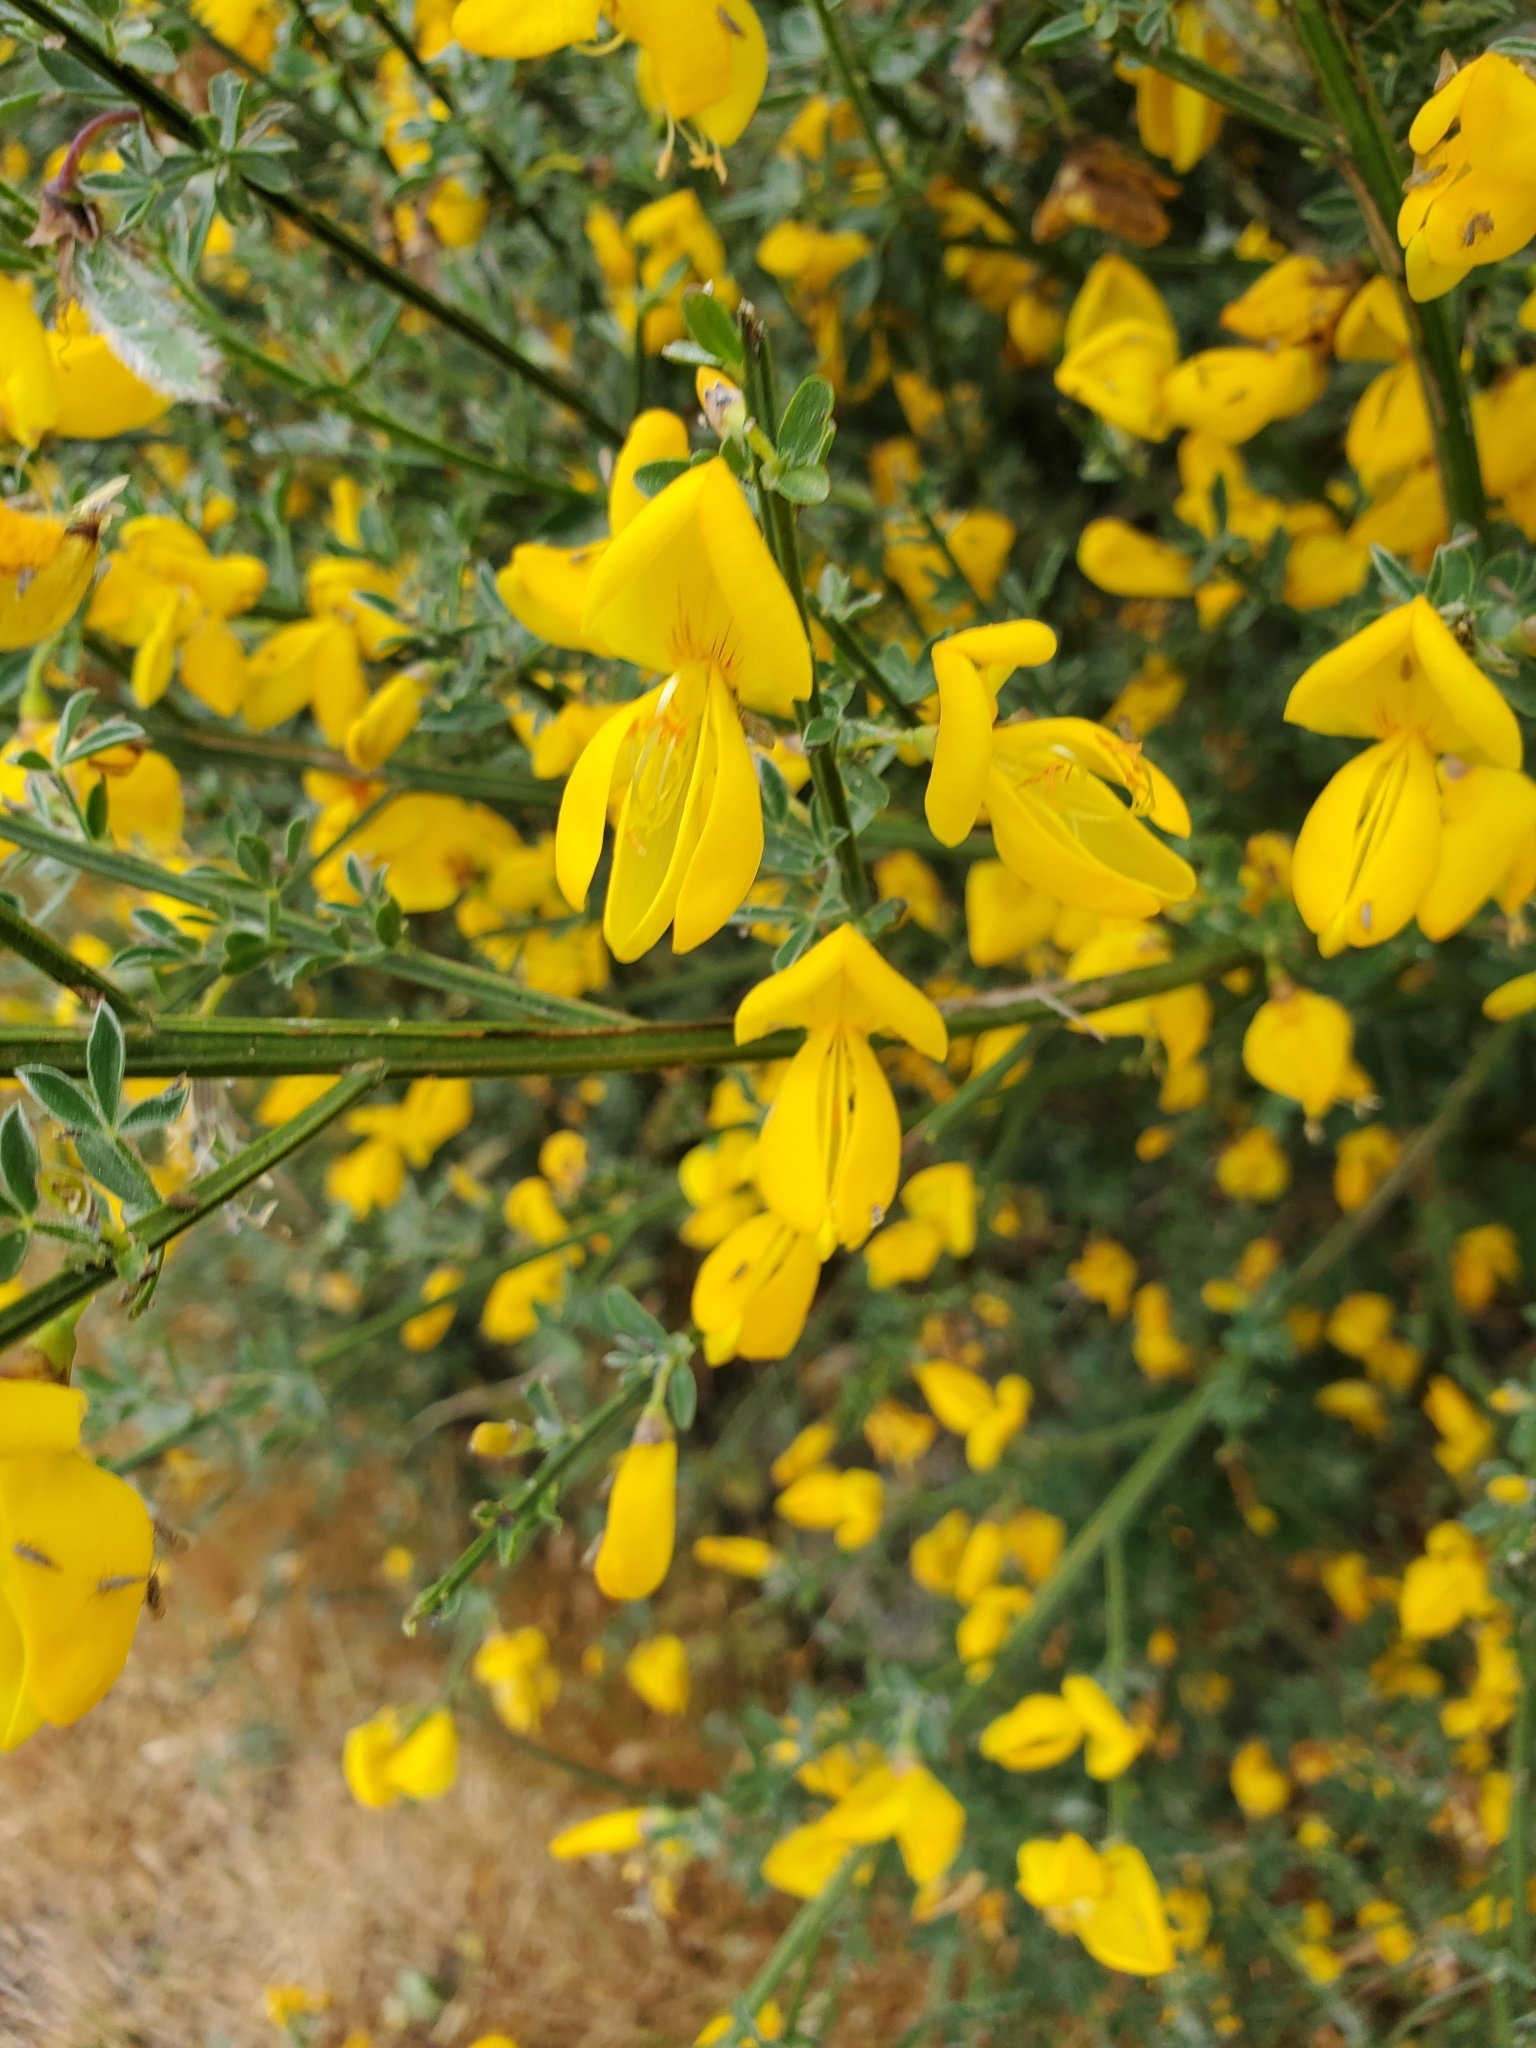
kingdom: Plantae
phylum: Tracheophyta
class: Magnoliopsida
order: Fabales
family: Fabaceae
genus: Cytisus
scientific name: Cytisus scoparius
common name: Scotch broom
